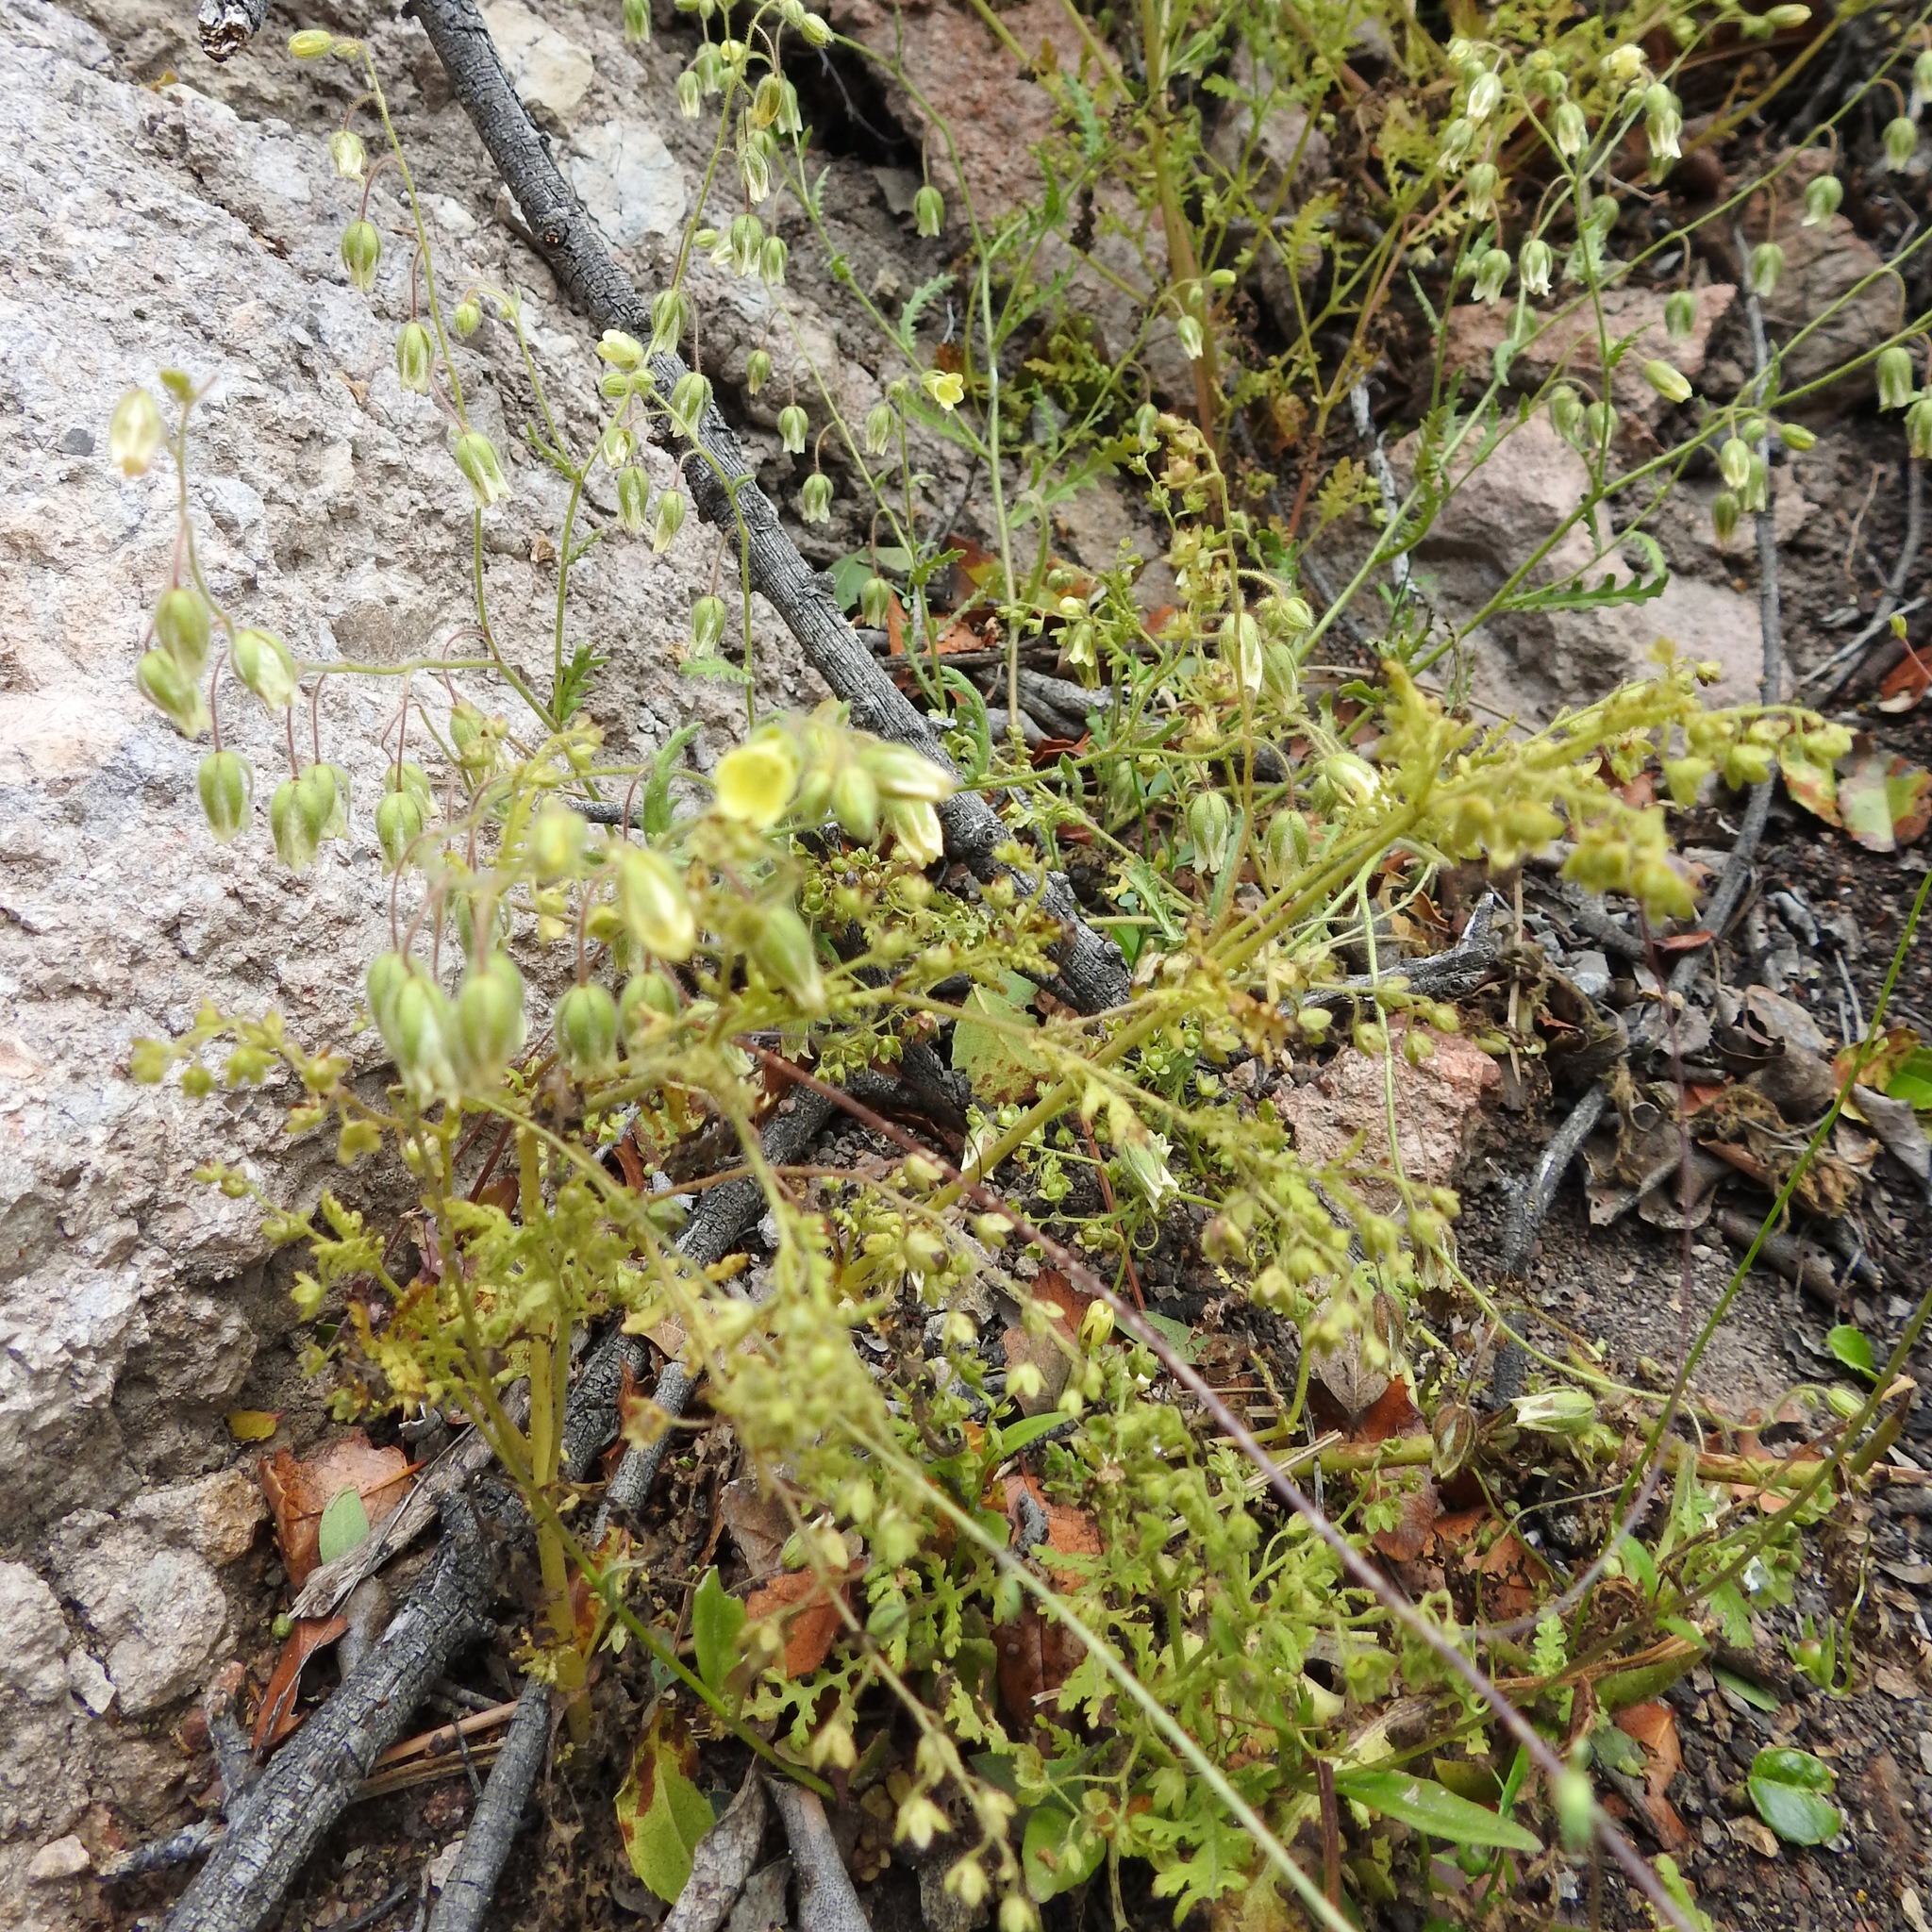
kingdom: Plantae
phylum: Tracheophyta
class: Magnoliopsida
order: Boraginales
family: Hydrophyllaceae
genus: Emmenanthe
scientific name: Emmenanthe penduliflora
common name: Whispering-bells
